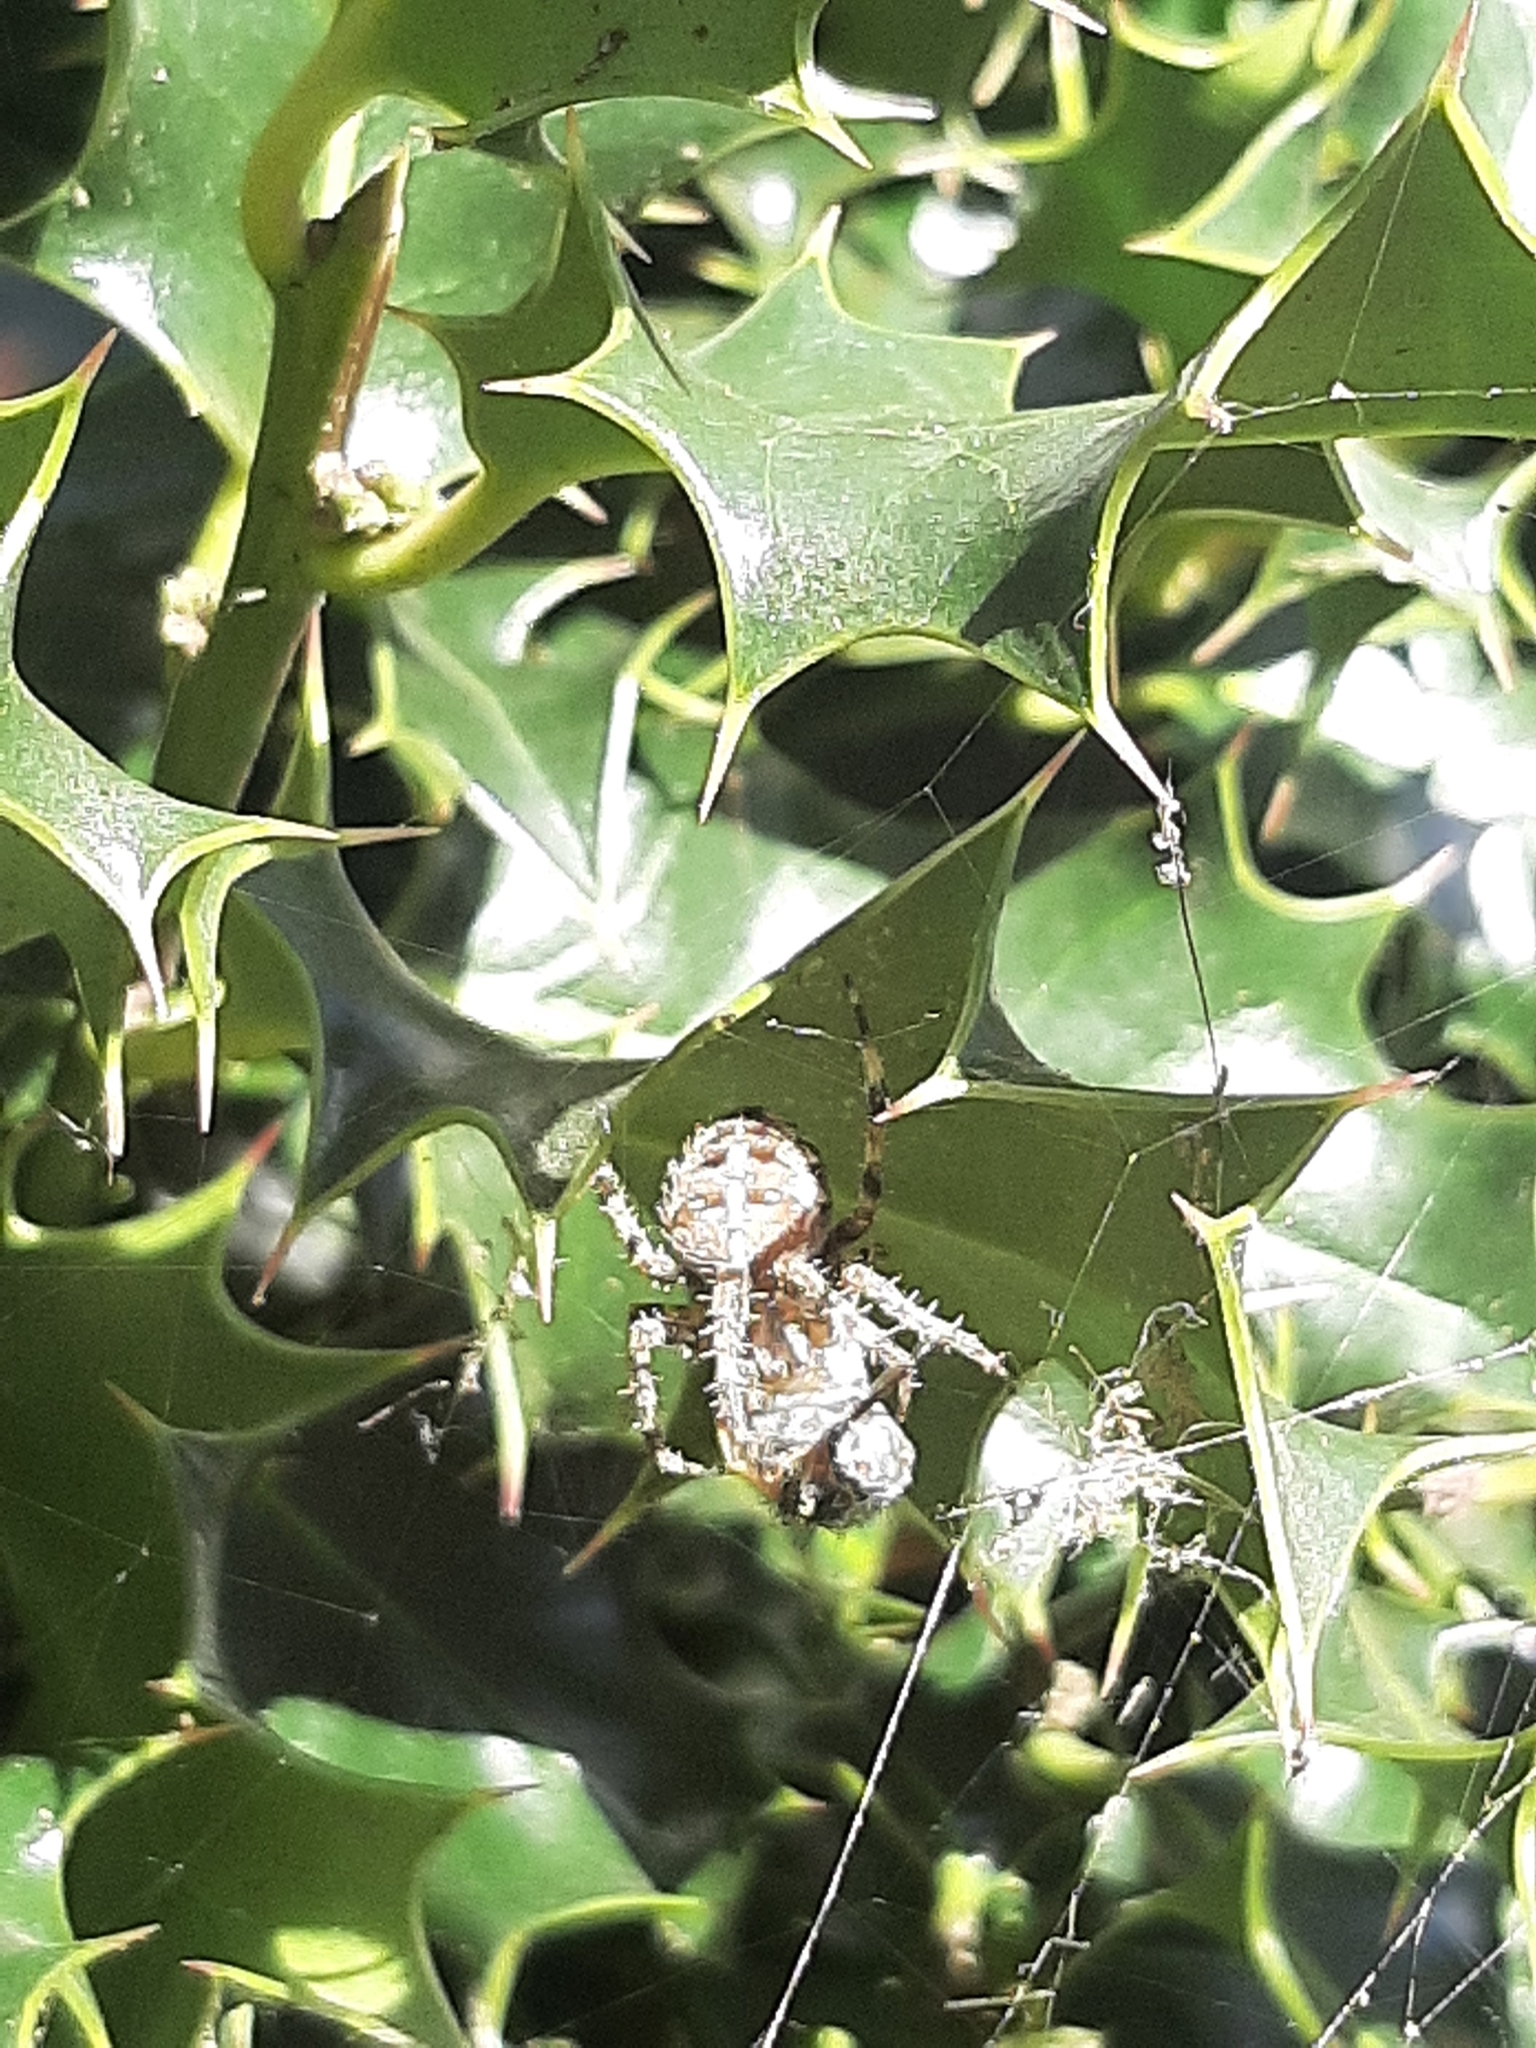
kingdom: Animalia
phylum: Arthropoda
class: Arachnida
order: Araneae
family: Araneidae
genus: Araneus
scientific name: Araneus diadematus
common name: Cross orbweaver
